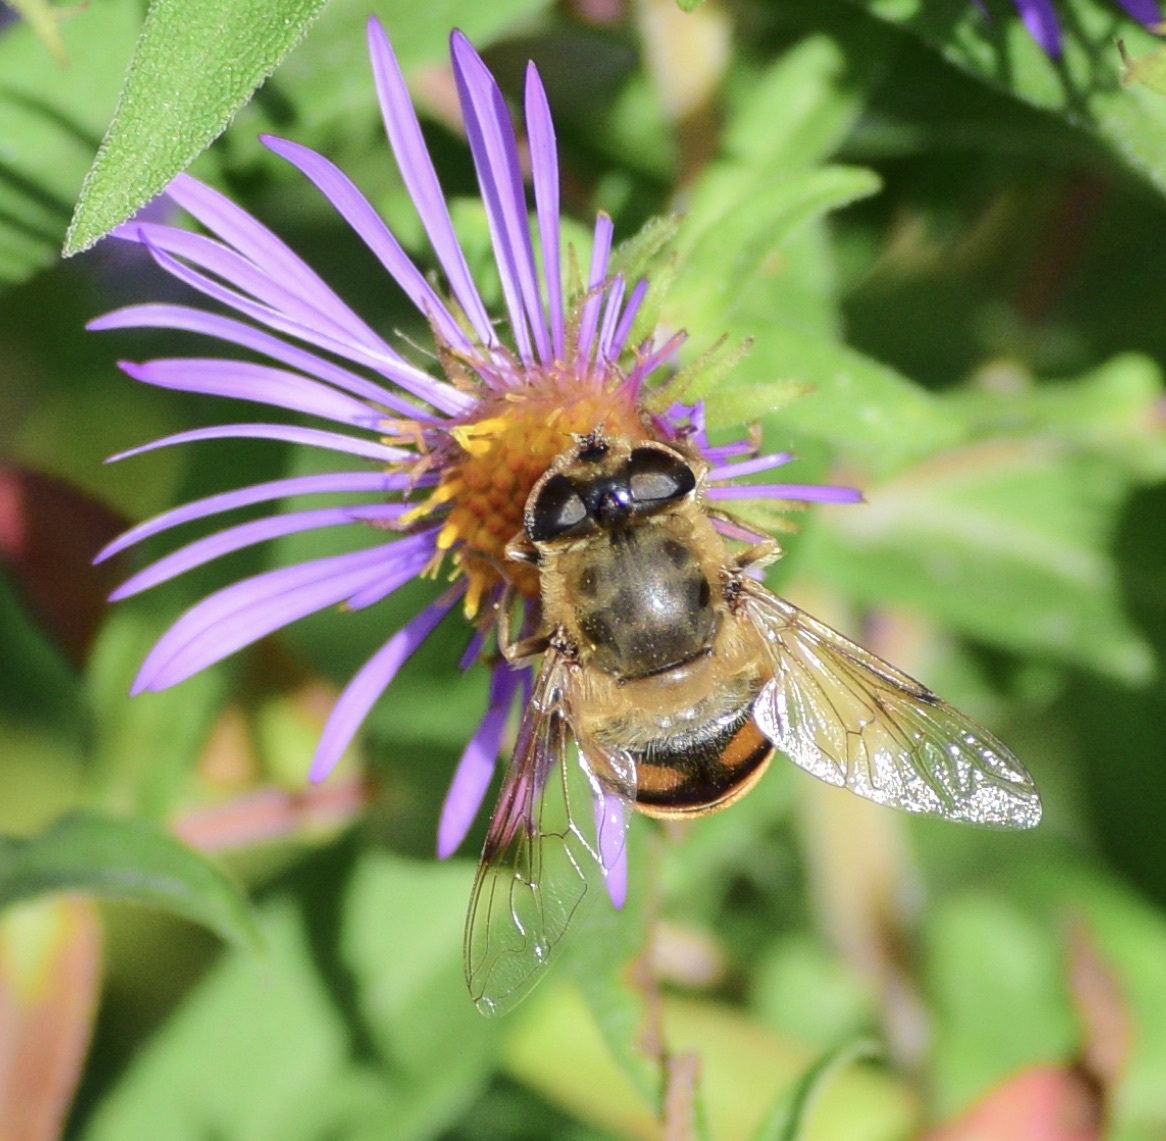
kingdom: Animalia
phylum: Arthropoda
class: Insecta
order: Diptera
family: Syrphidae
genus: Eristalis
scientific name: Eristalis tenax
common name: Drone fly
